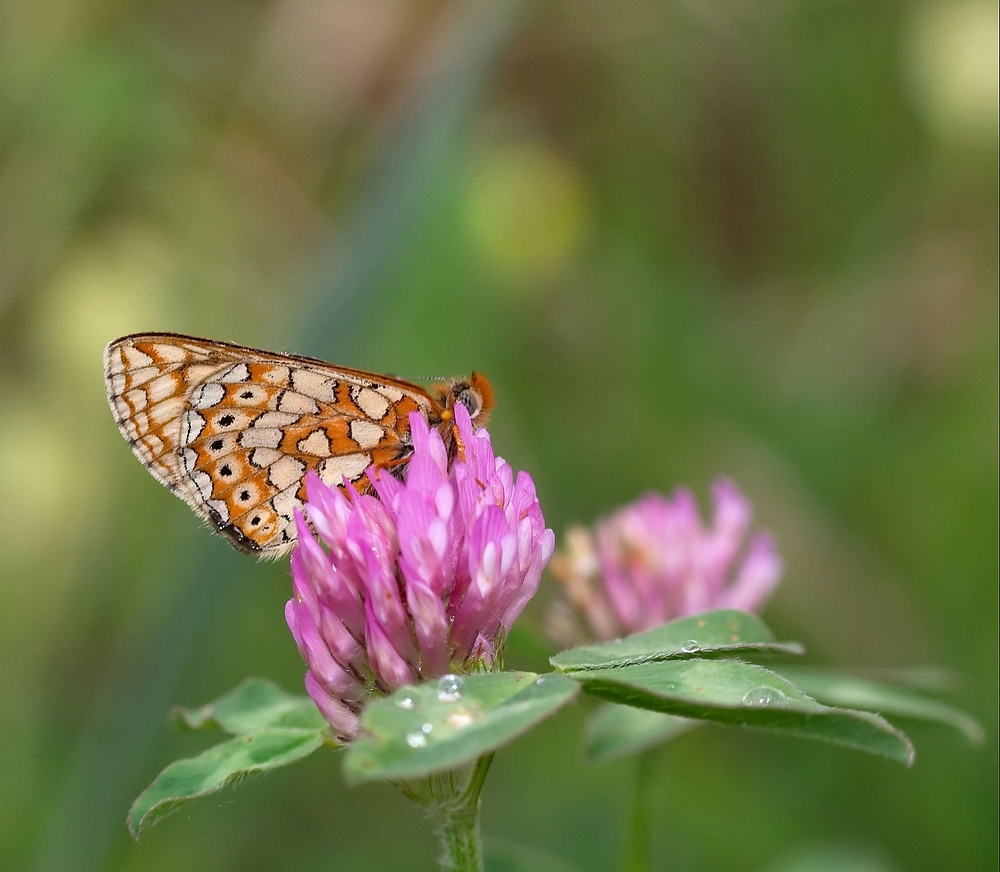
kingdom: Animalia
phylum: Arthropoda
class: Insecta
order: Lepidoptera
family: Nymphalidae
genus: Euphydryas
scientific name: Euphydryas aurinia
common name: Marsh fritillary
